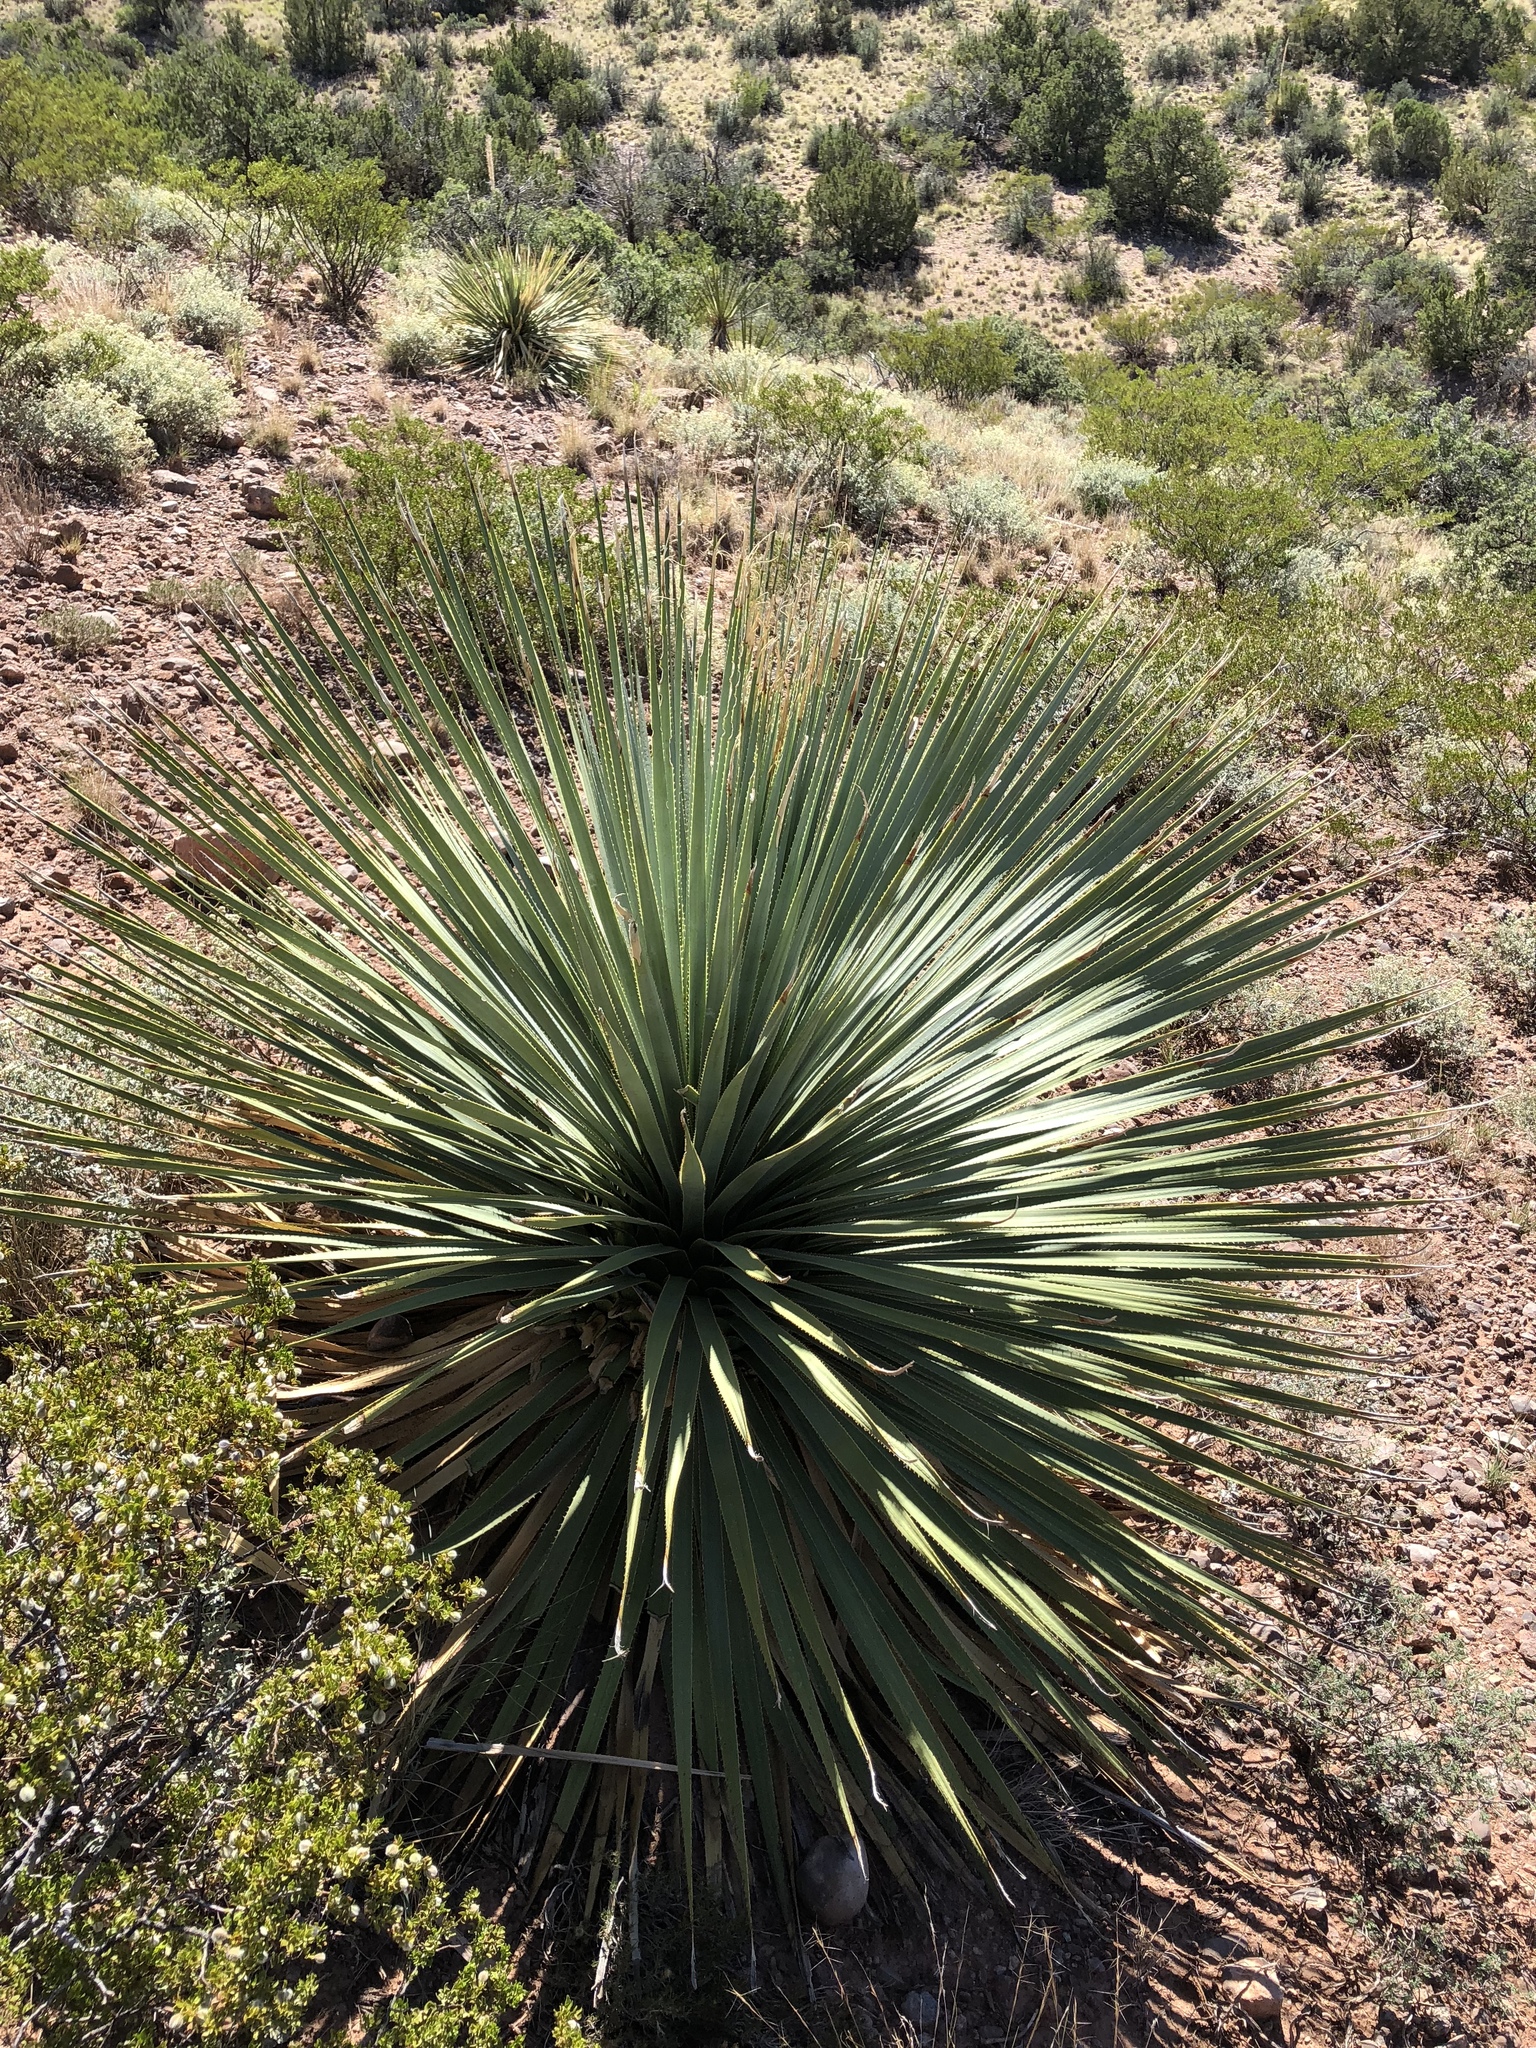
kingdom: Plantae
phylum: Tracheophyta
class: Liliopsida
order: Asparagales
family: Asparagaceae
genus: Dasylirion
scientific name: Dasylirion wheeleri
